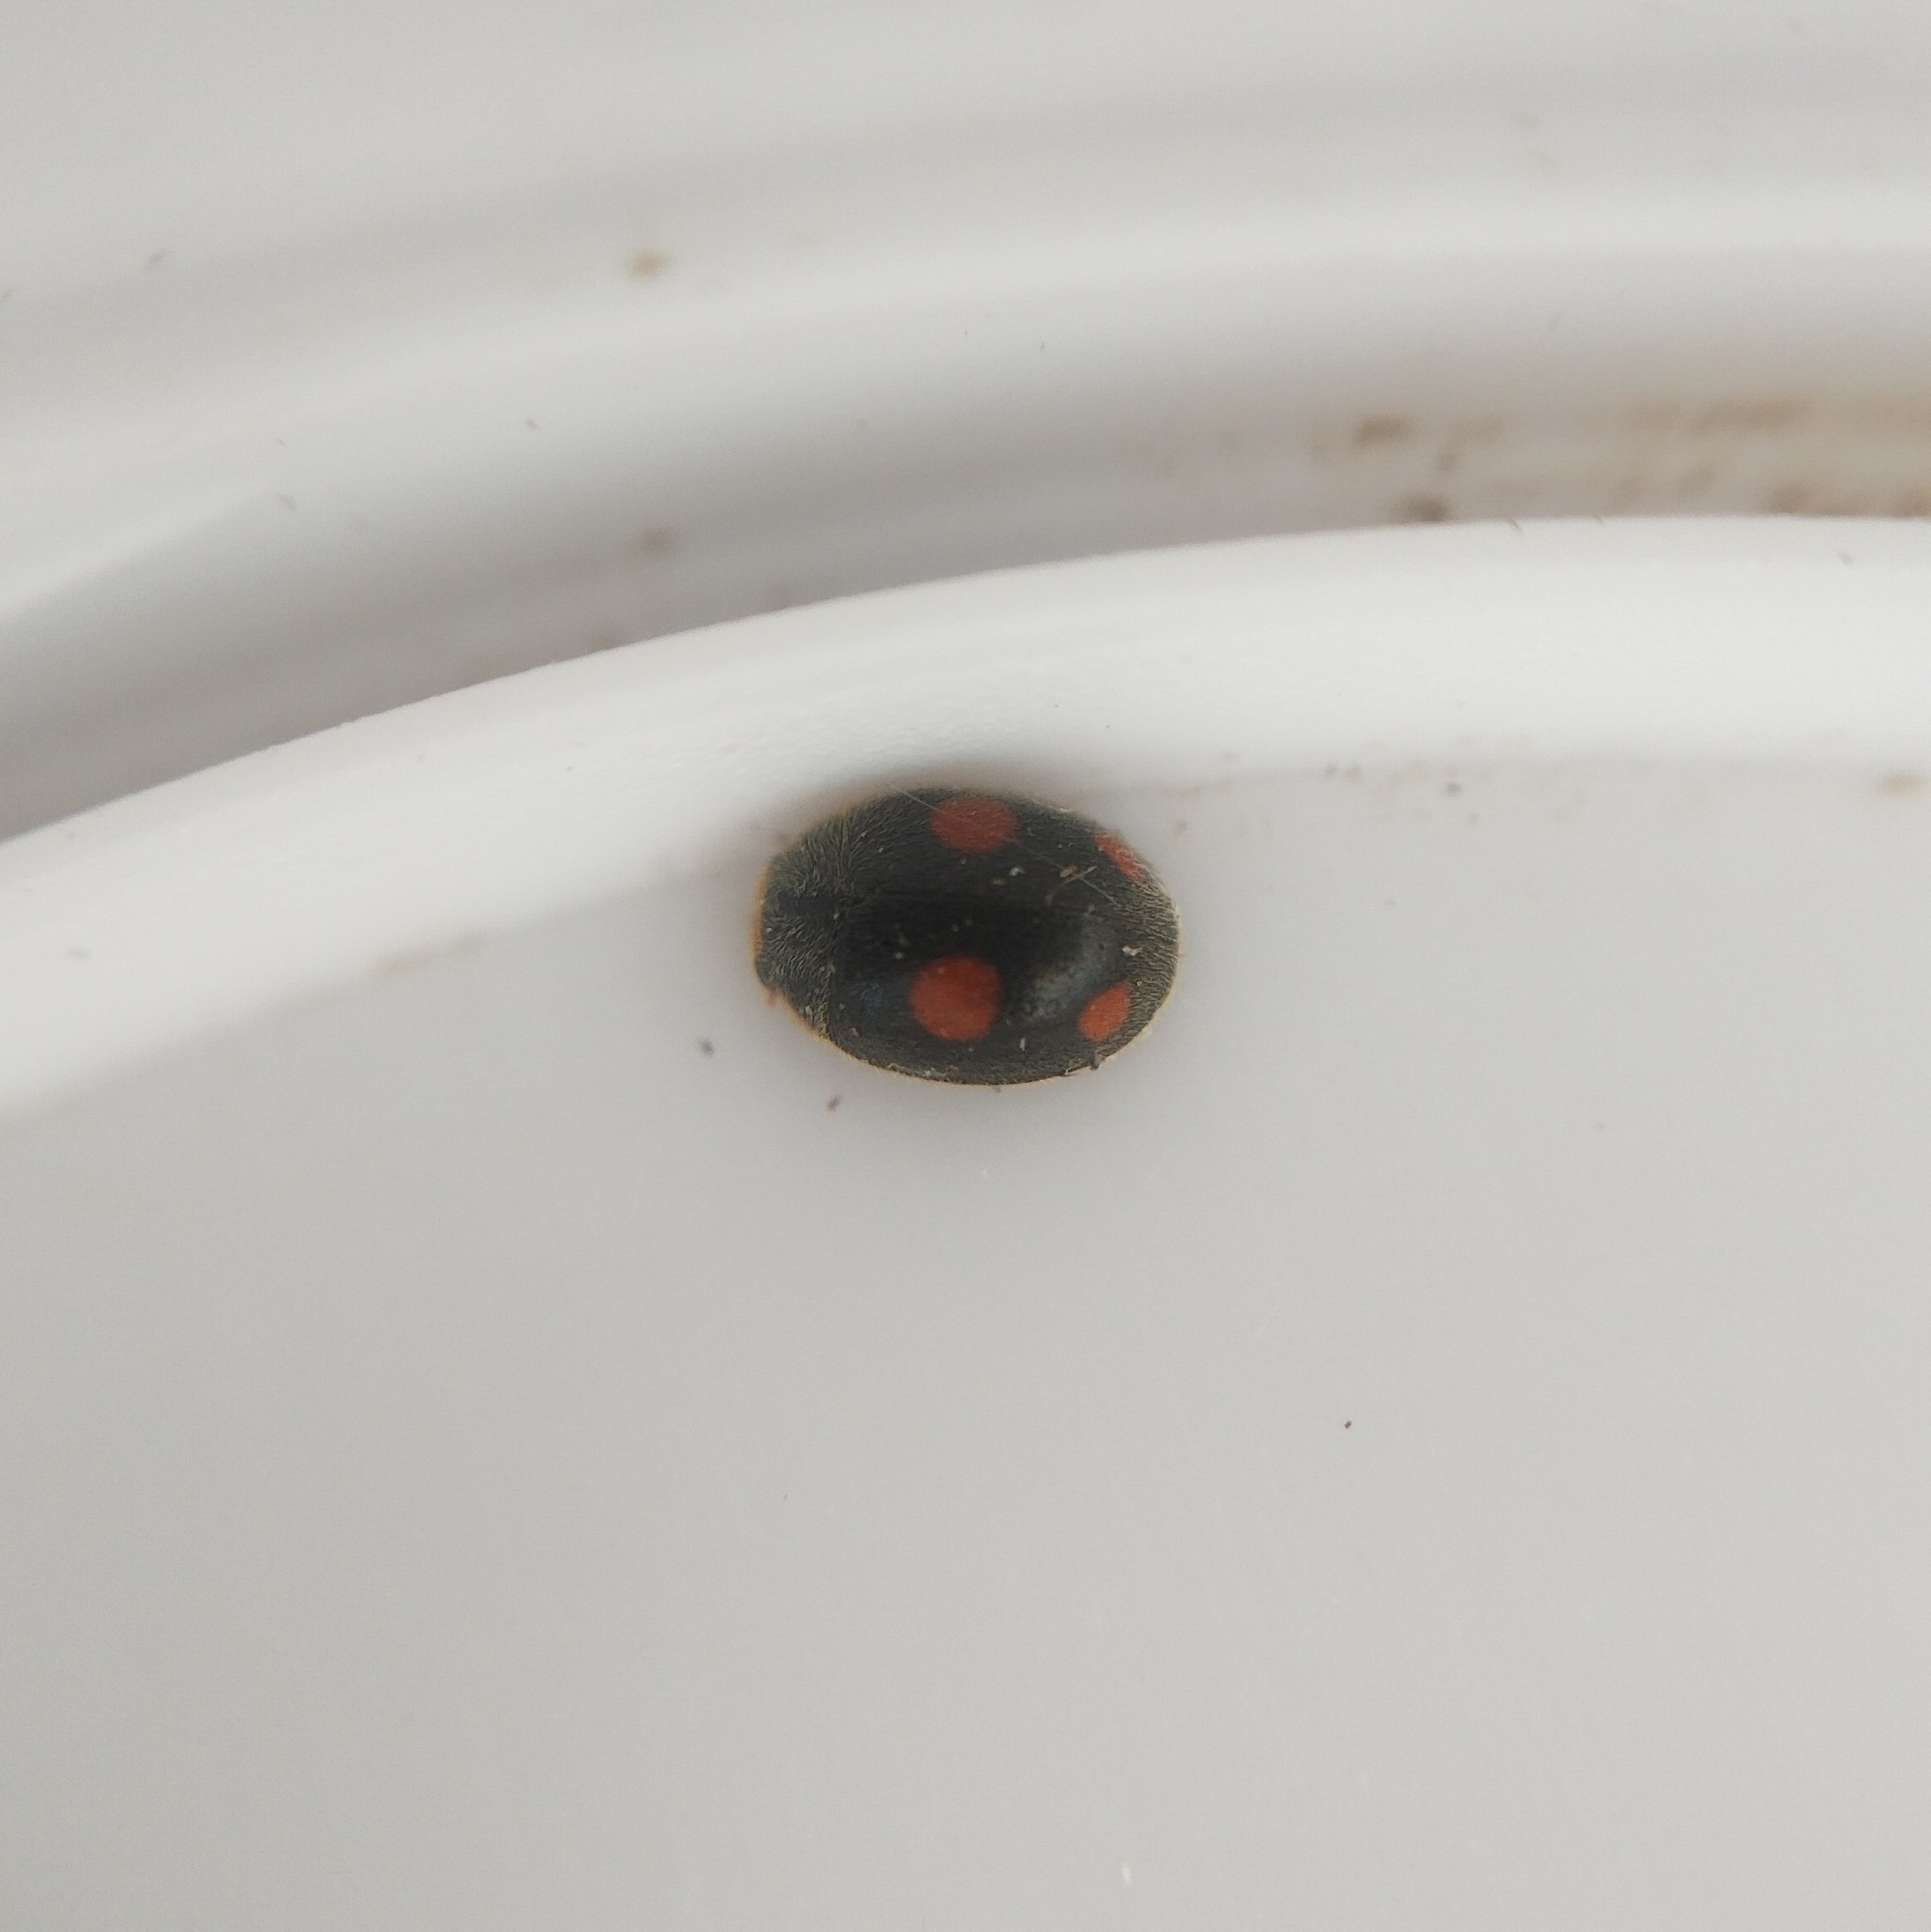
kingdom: Animalia
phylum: Arthropoda
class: Insecta
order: Coleoptera
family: Coccinellidae
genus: Platynaspis
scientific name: Platynaspis luteorubra
